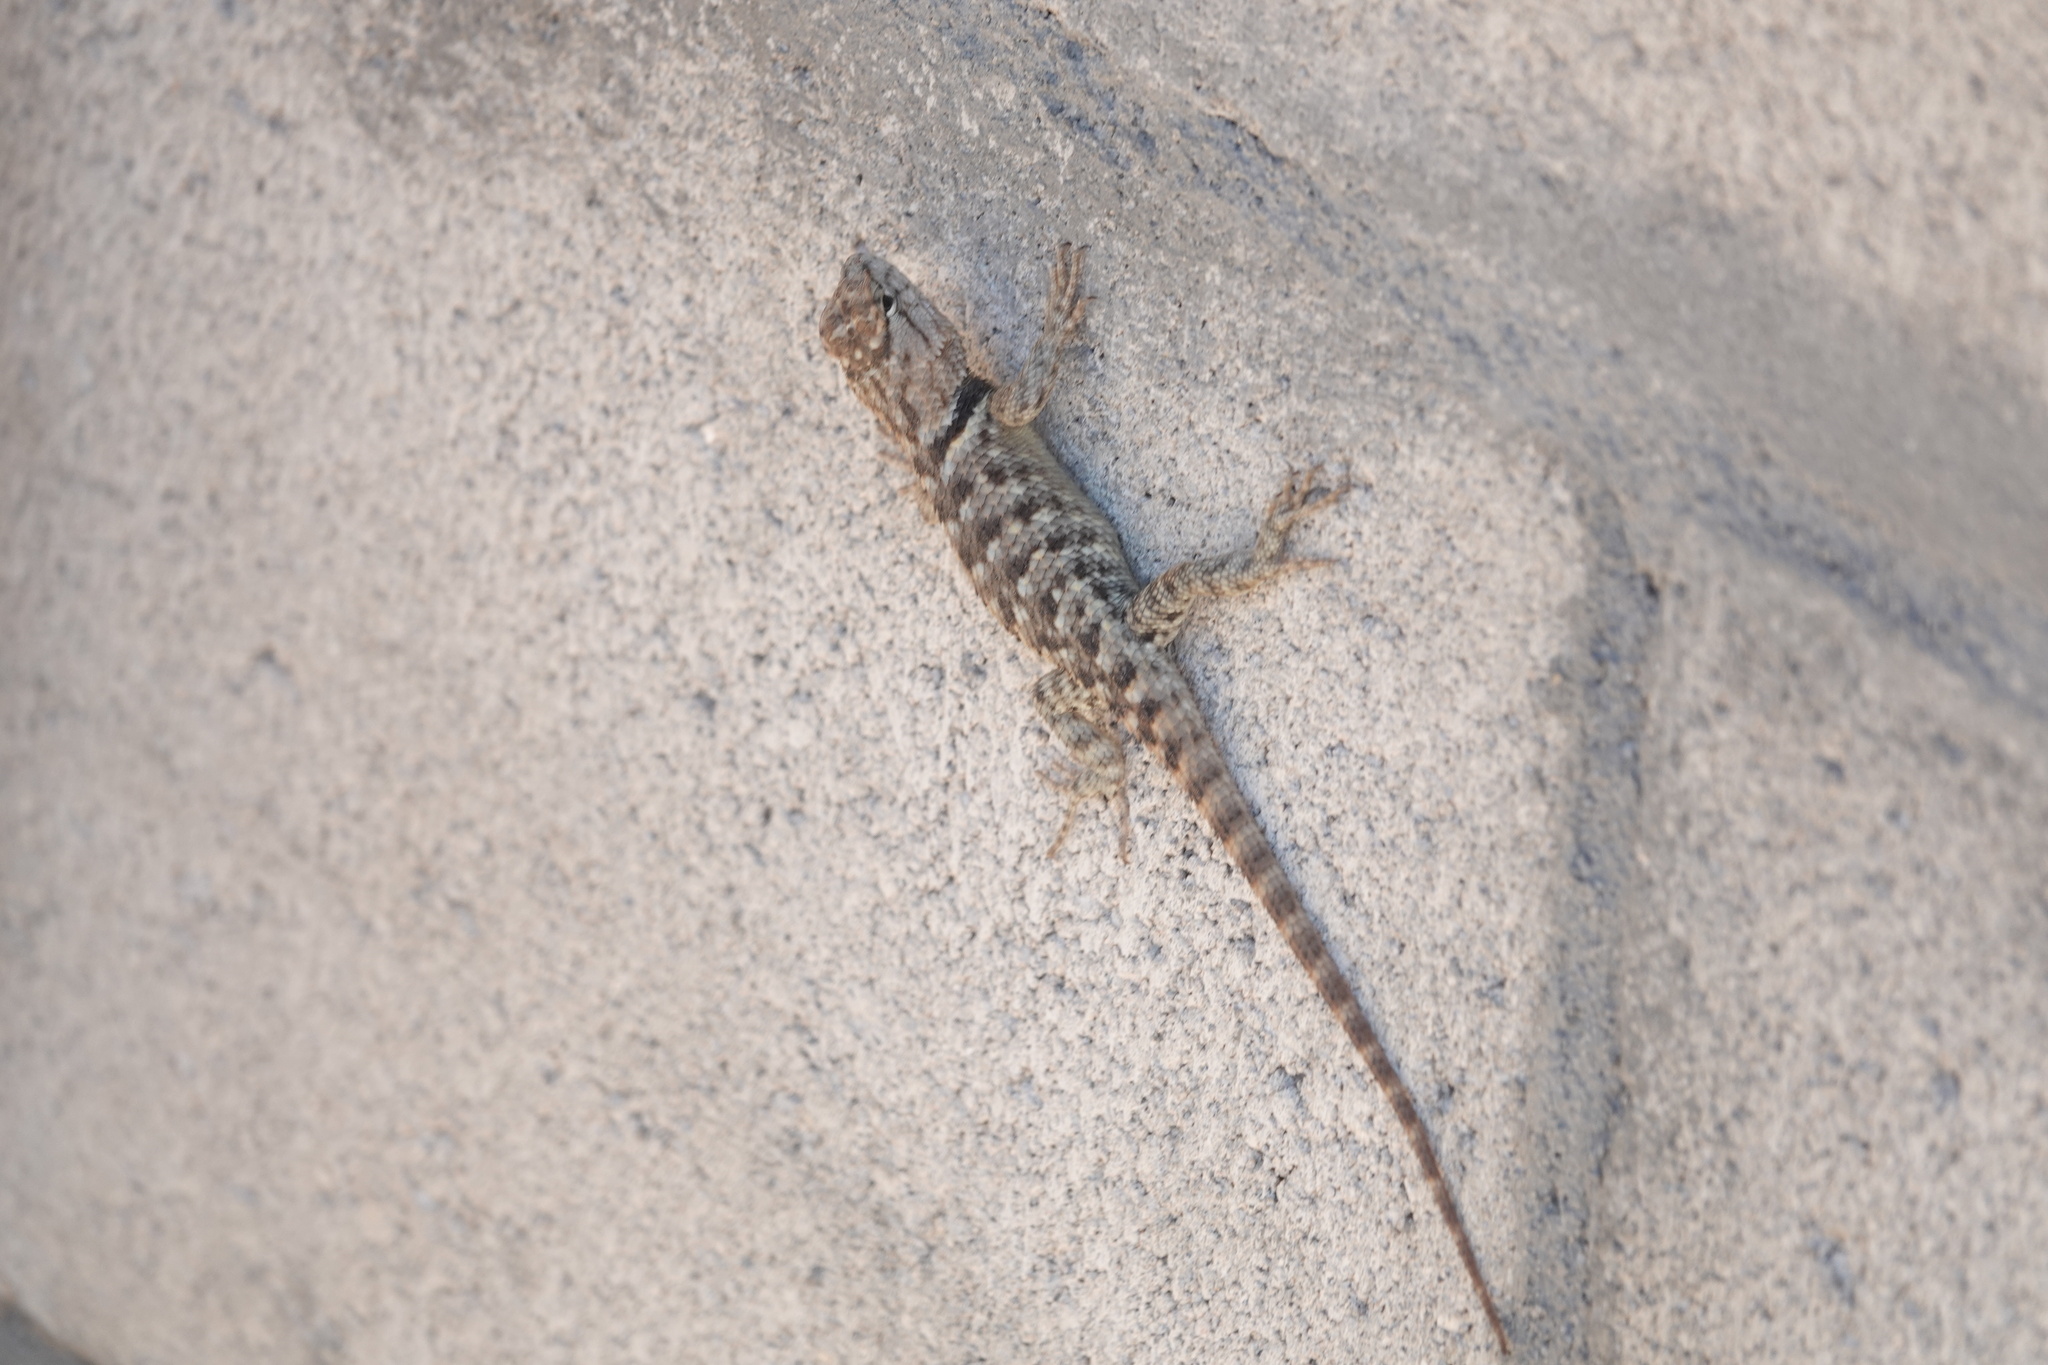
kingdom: Animalia
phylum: Chordata
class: Squamata
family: Phrynosomatidae
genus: Sceloporus
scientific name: Sceloporus uniformis
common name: Yellow-backed spiny lizard
